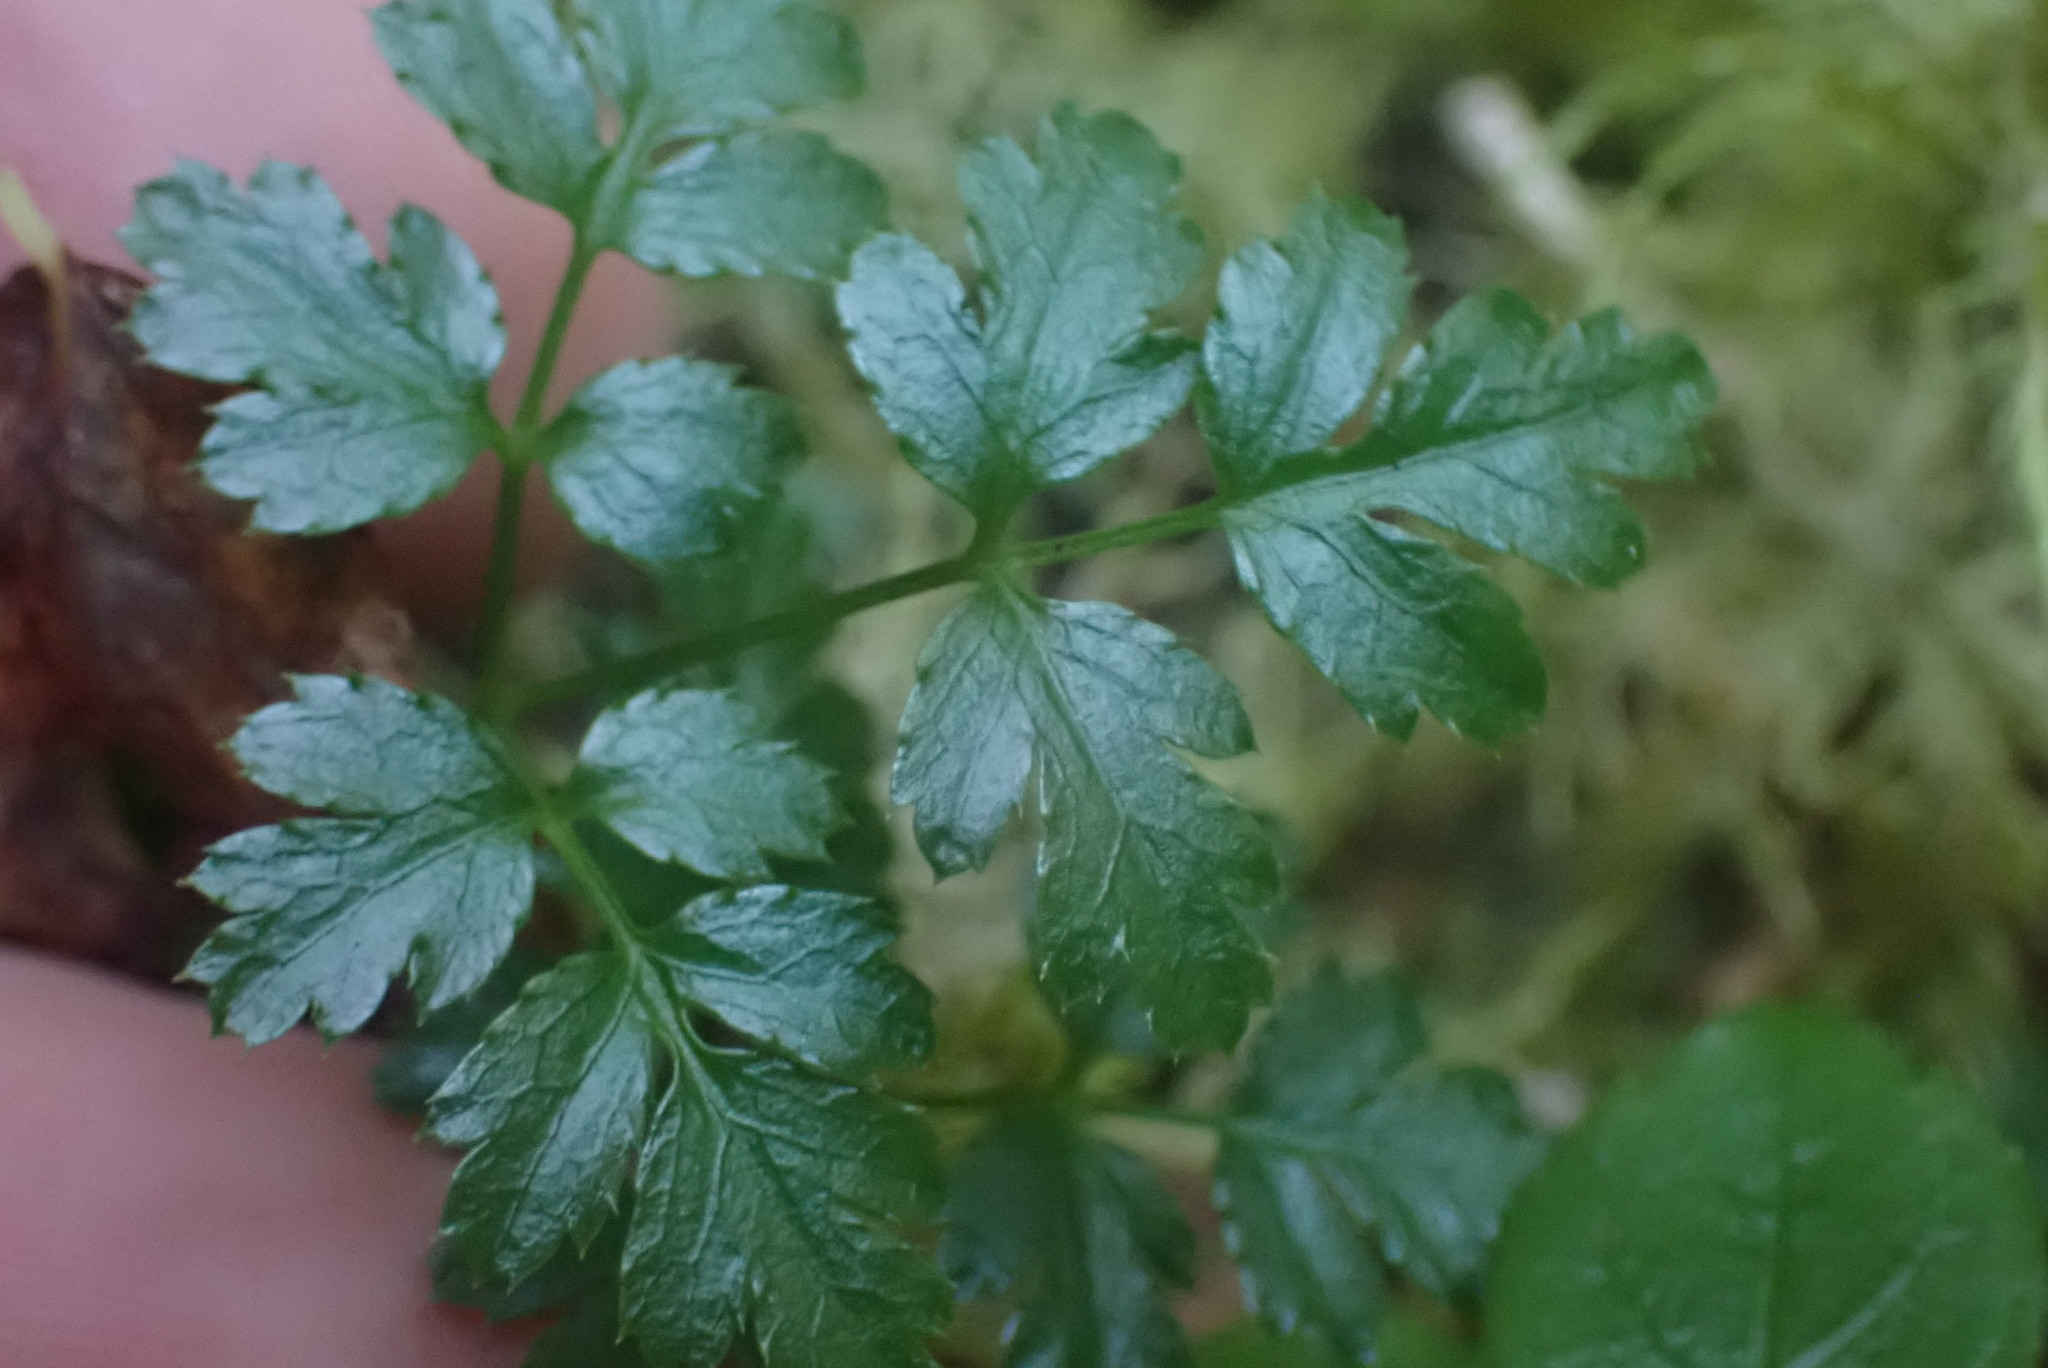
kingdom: Plantae
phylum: Tracheophyta
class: Magnoliopsida
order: Ranunculales
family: Ranunculaceae
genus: Coptis
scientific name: Coptis aspleniifolia
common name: Fern-leaved goldthread
